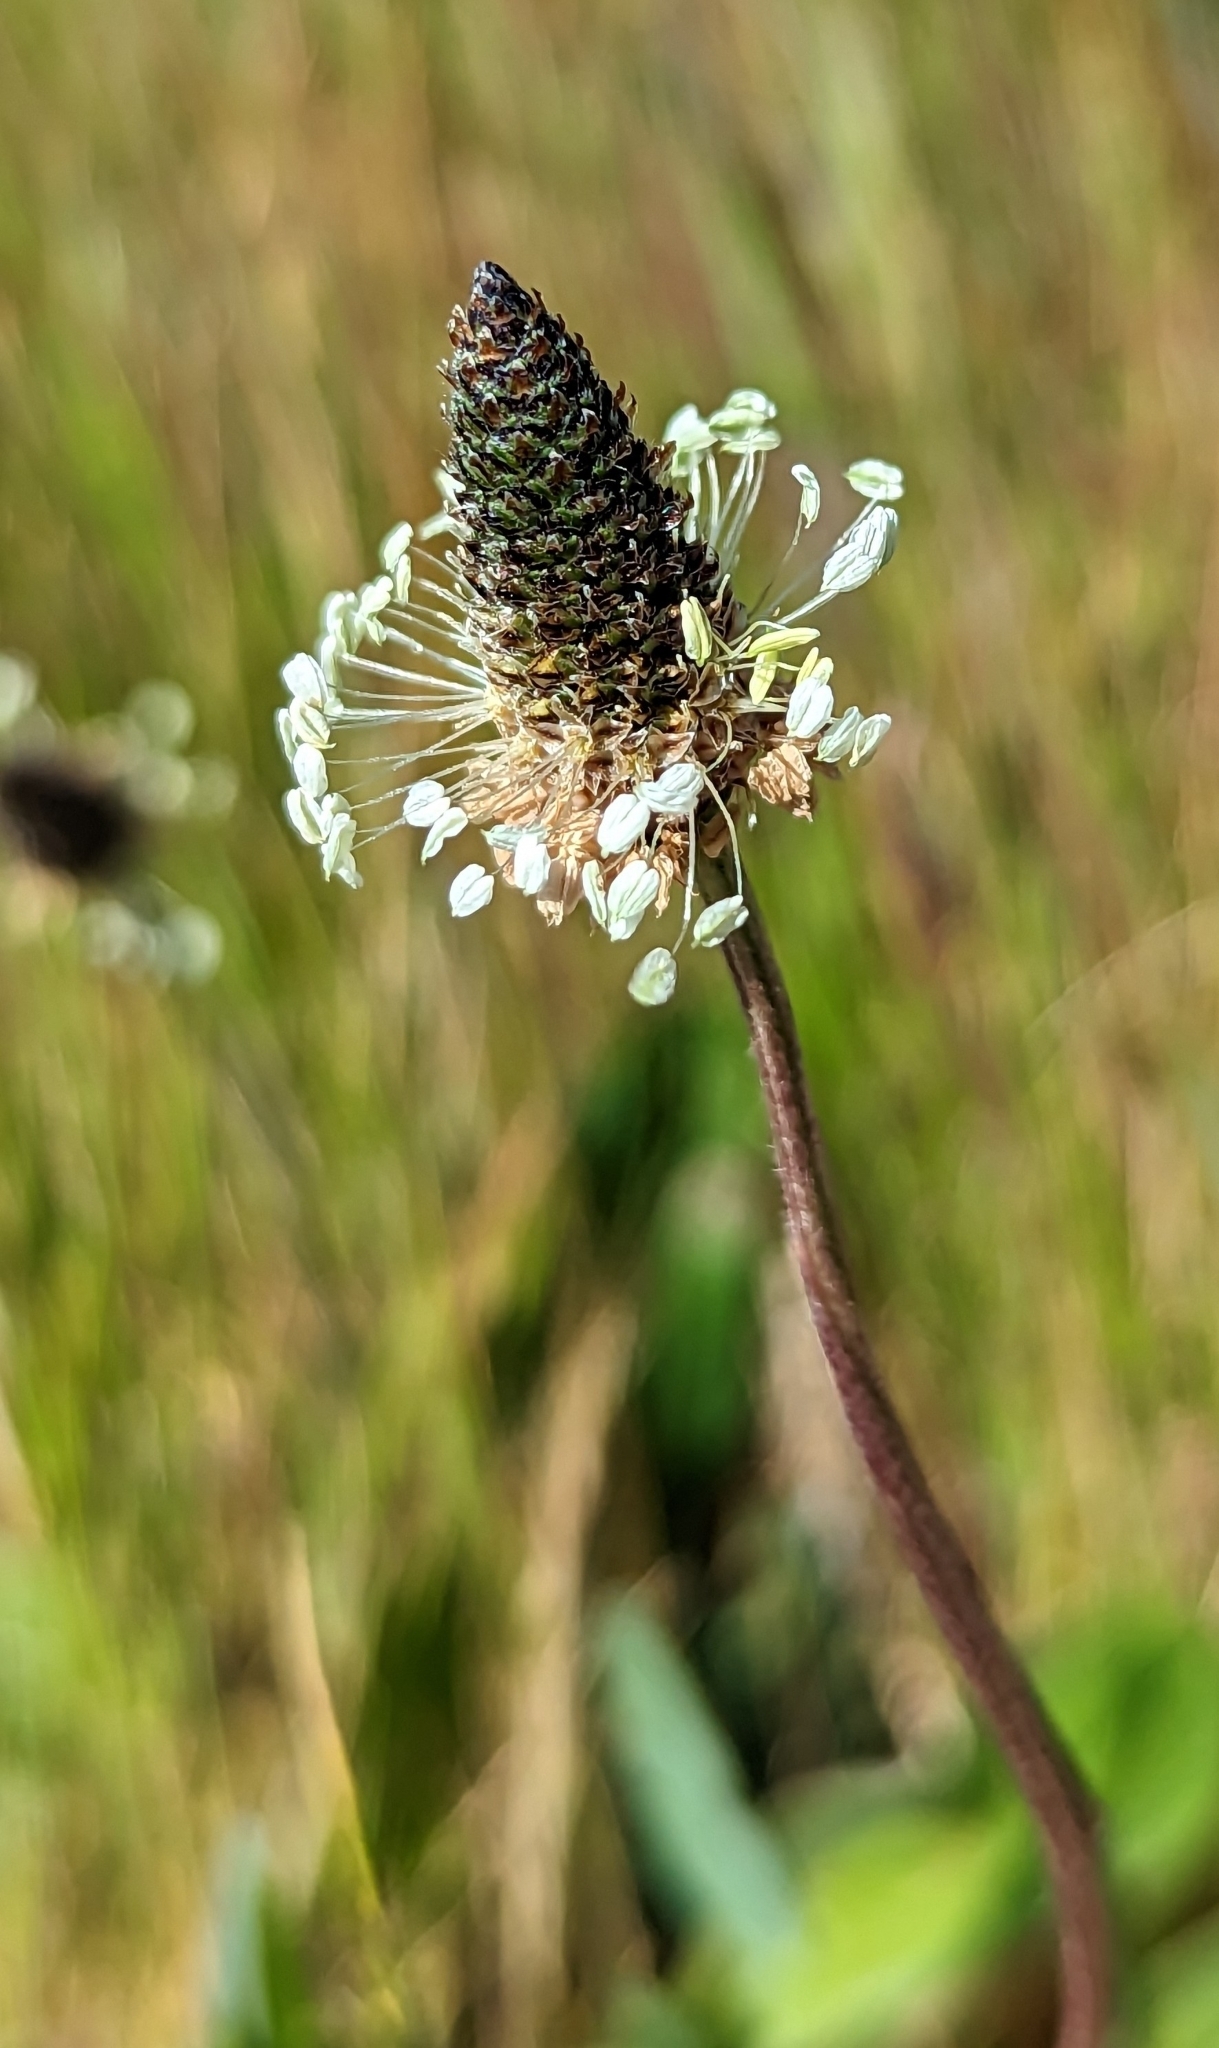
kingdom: Plantae
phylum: Tracheophyta
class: Magnoliopsida
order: Lamiales
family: Plantaginaceae
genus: Plantago
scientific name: Plantago lanceolata
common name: Ribwort plantain
